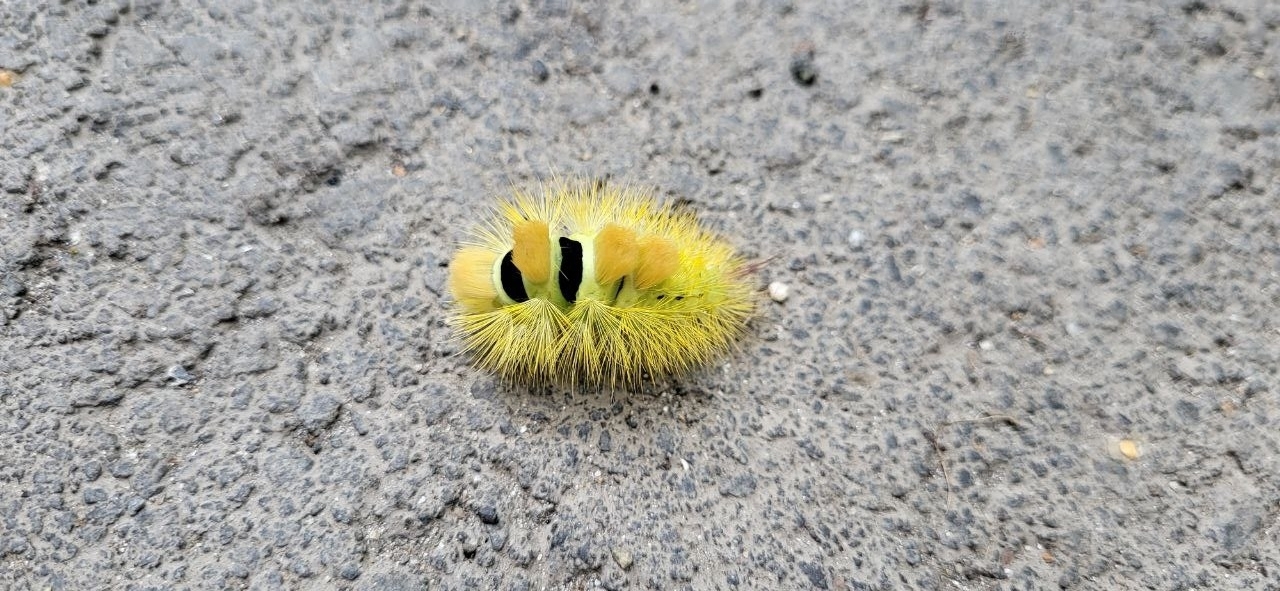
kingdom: Animalia
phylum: Arthropoda
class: Insecta
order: Lepidoptera
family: Erebidae
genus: Calliteara
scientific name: Calliteara pudibunda
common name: Pale tussock
